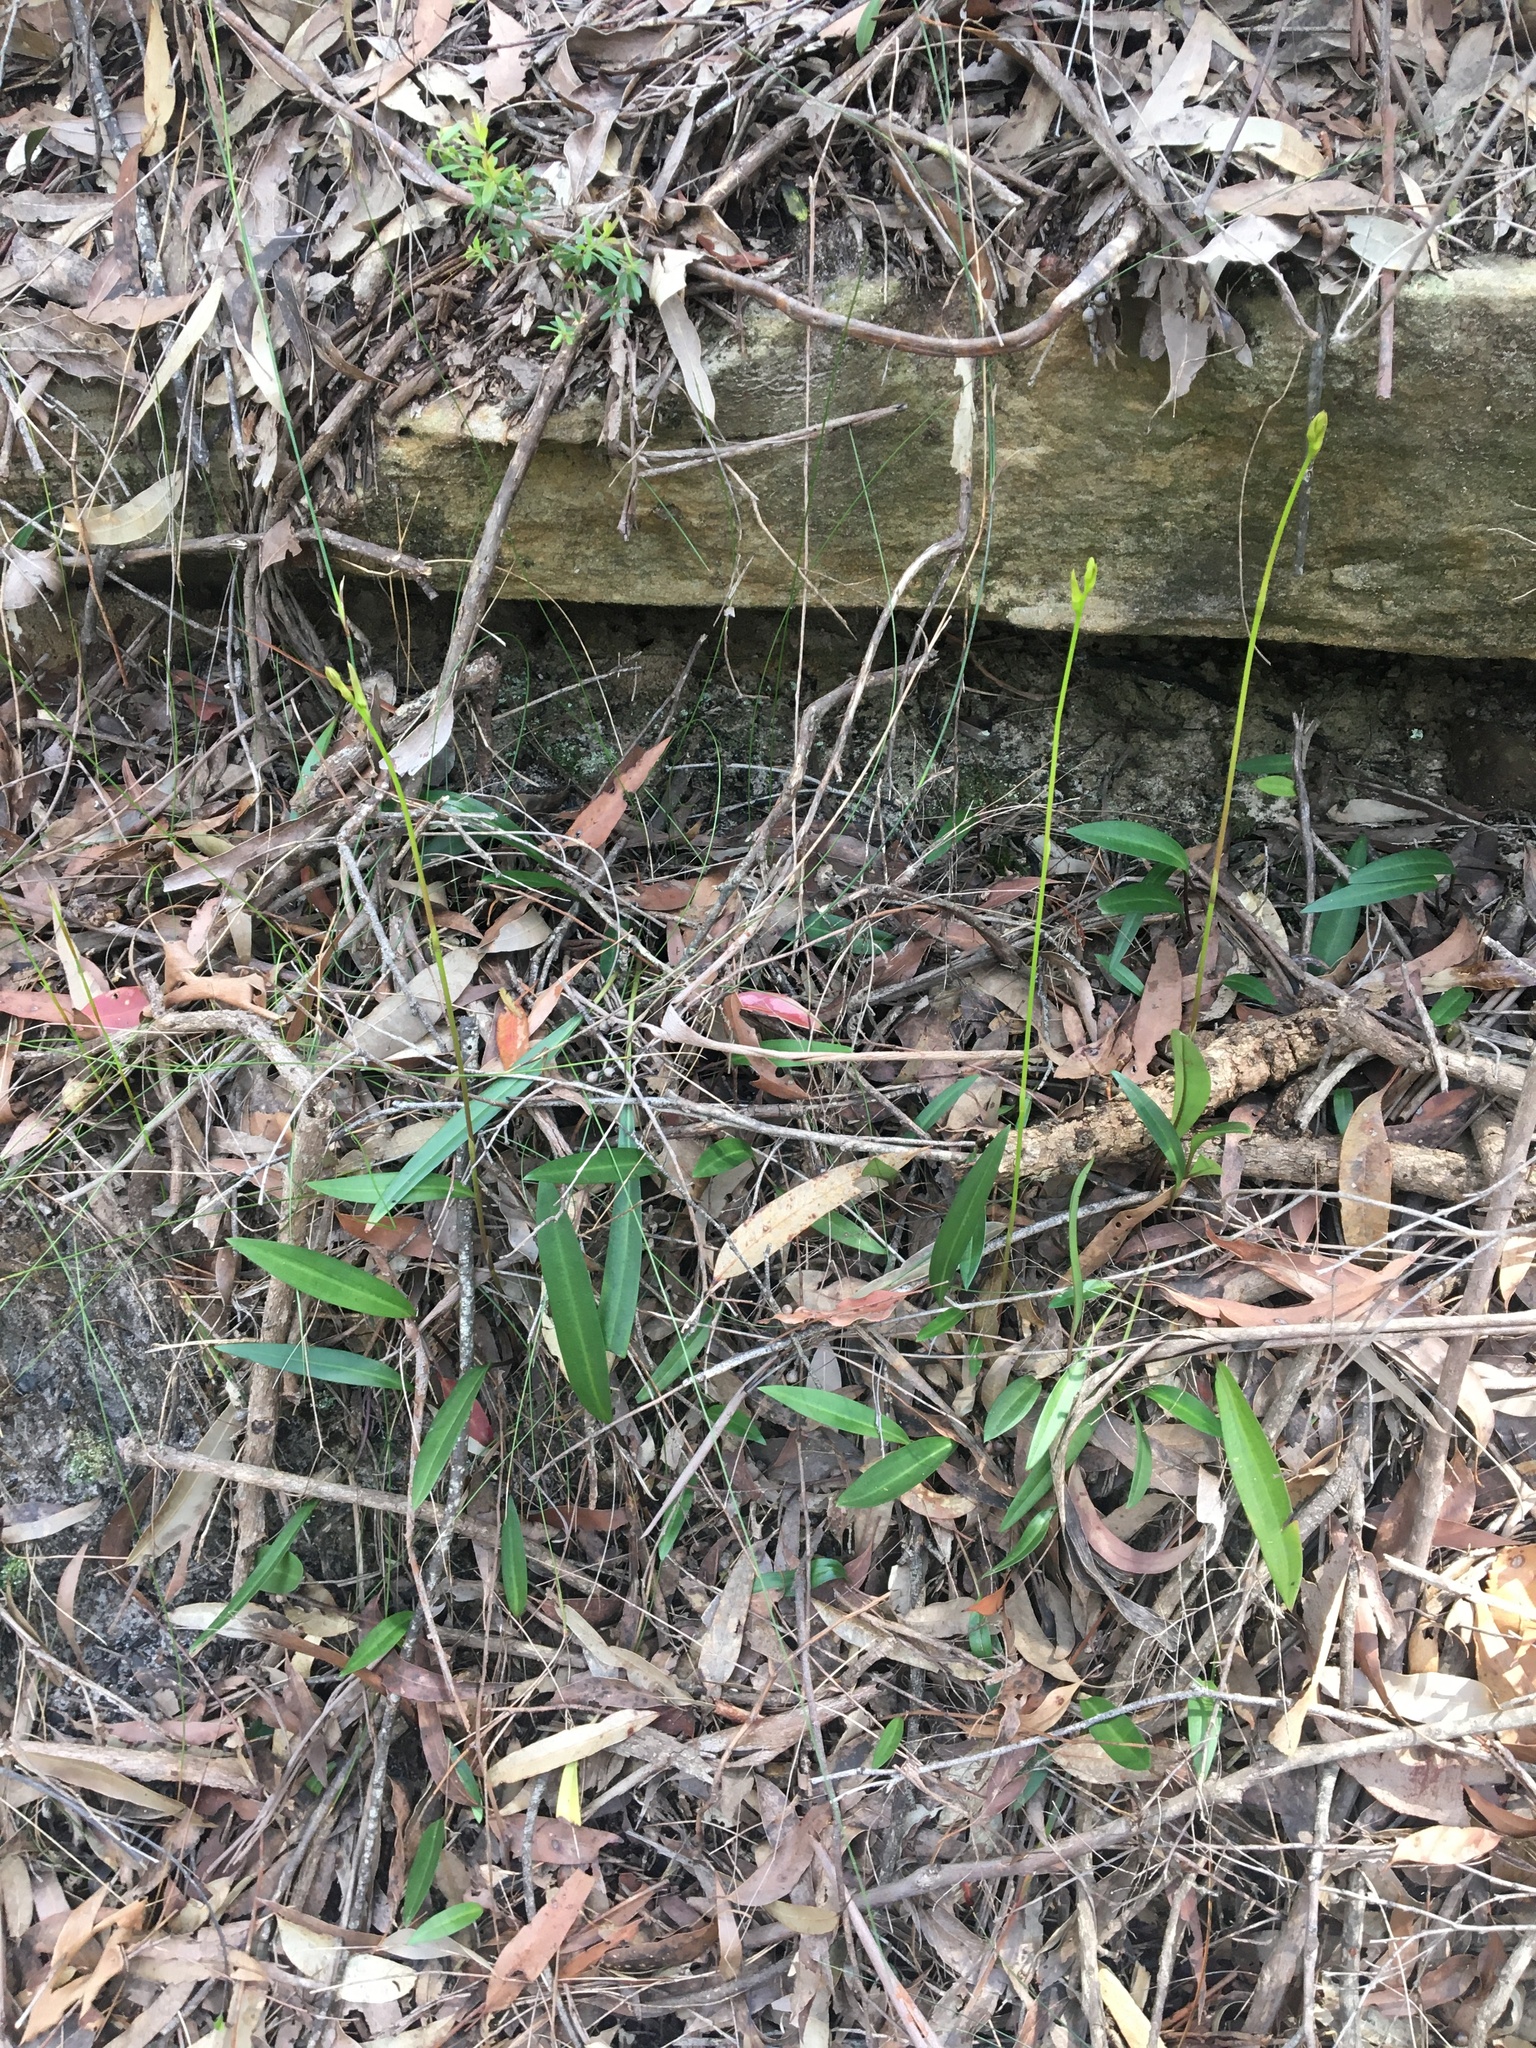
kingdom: Plantae
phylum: Tracheophyta
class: Liliopsida
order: Asparagales
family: Orchidaceae
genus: Cryptostylis
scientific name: Cryptostylis subulata
